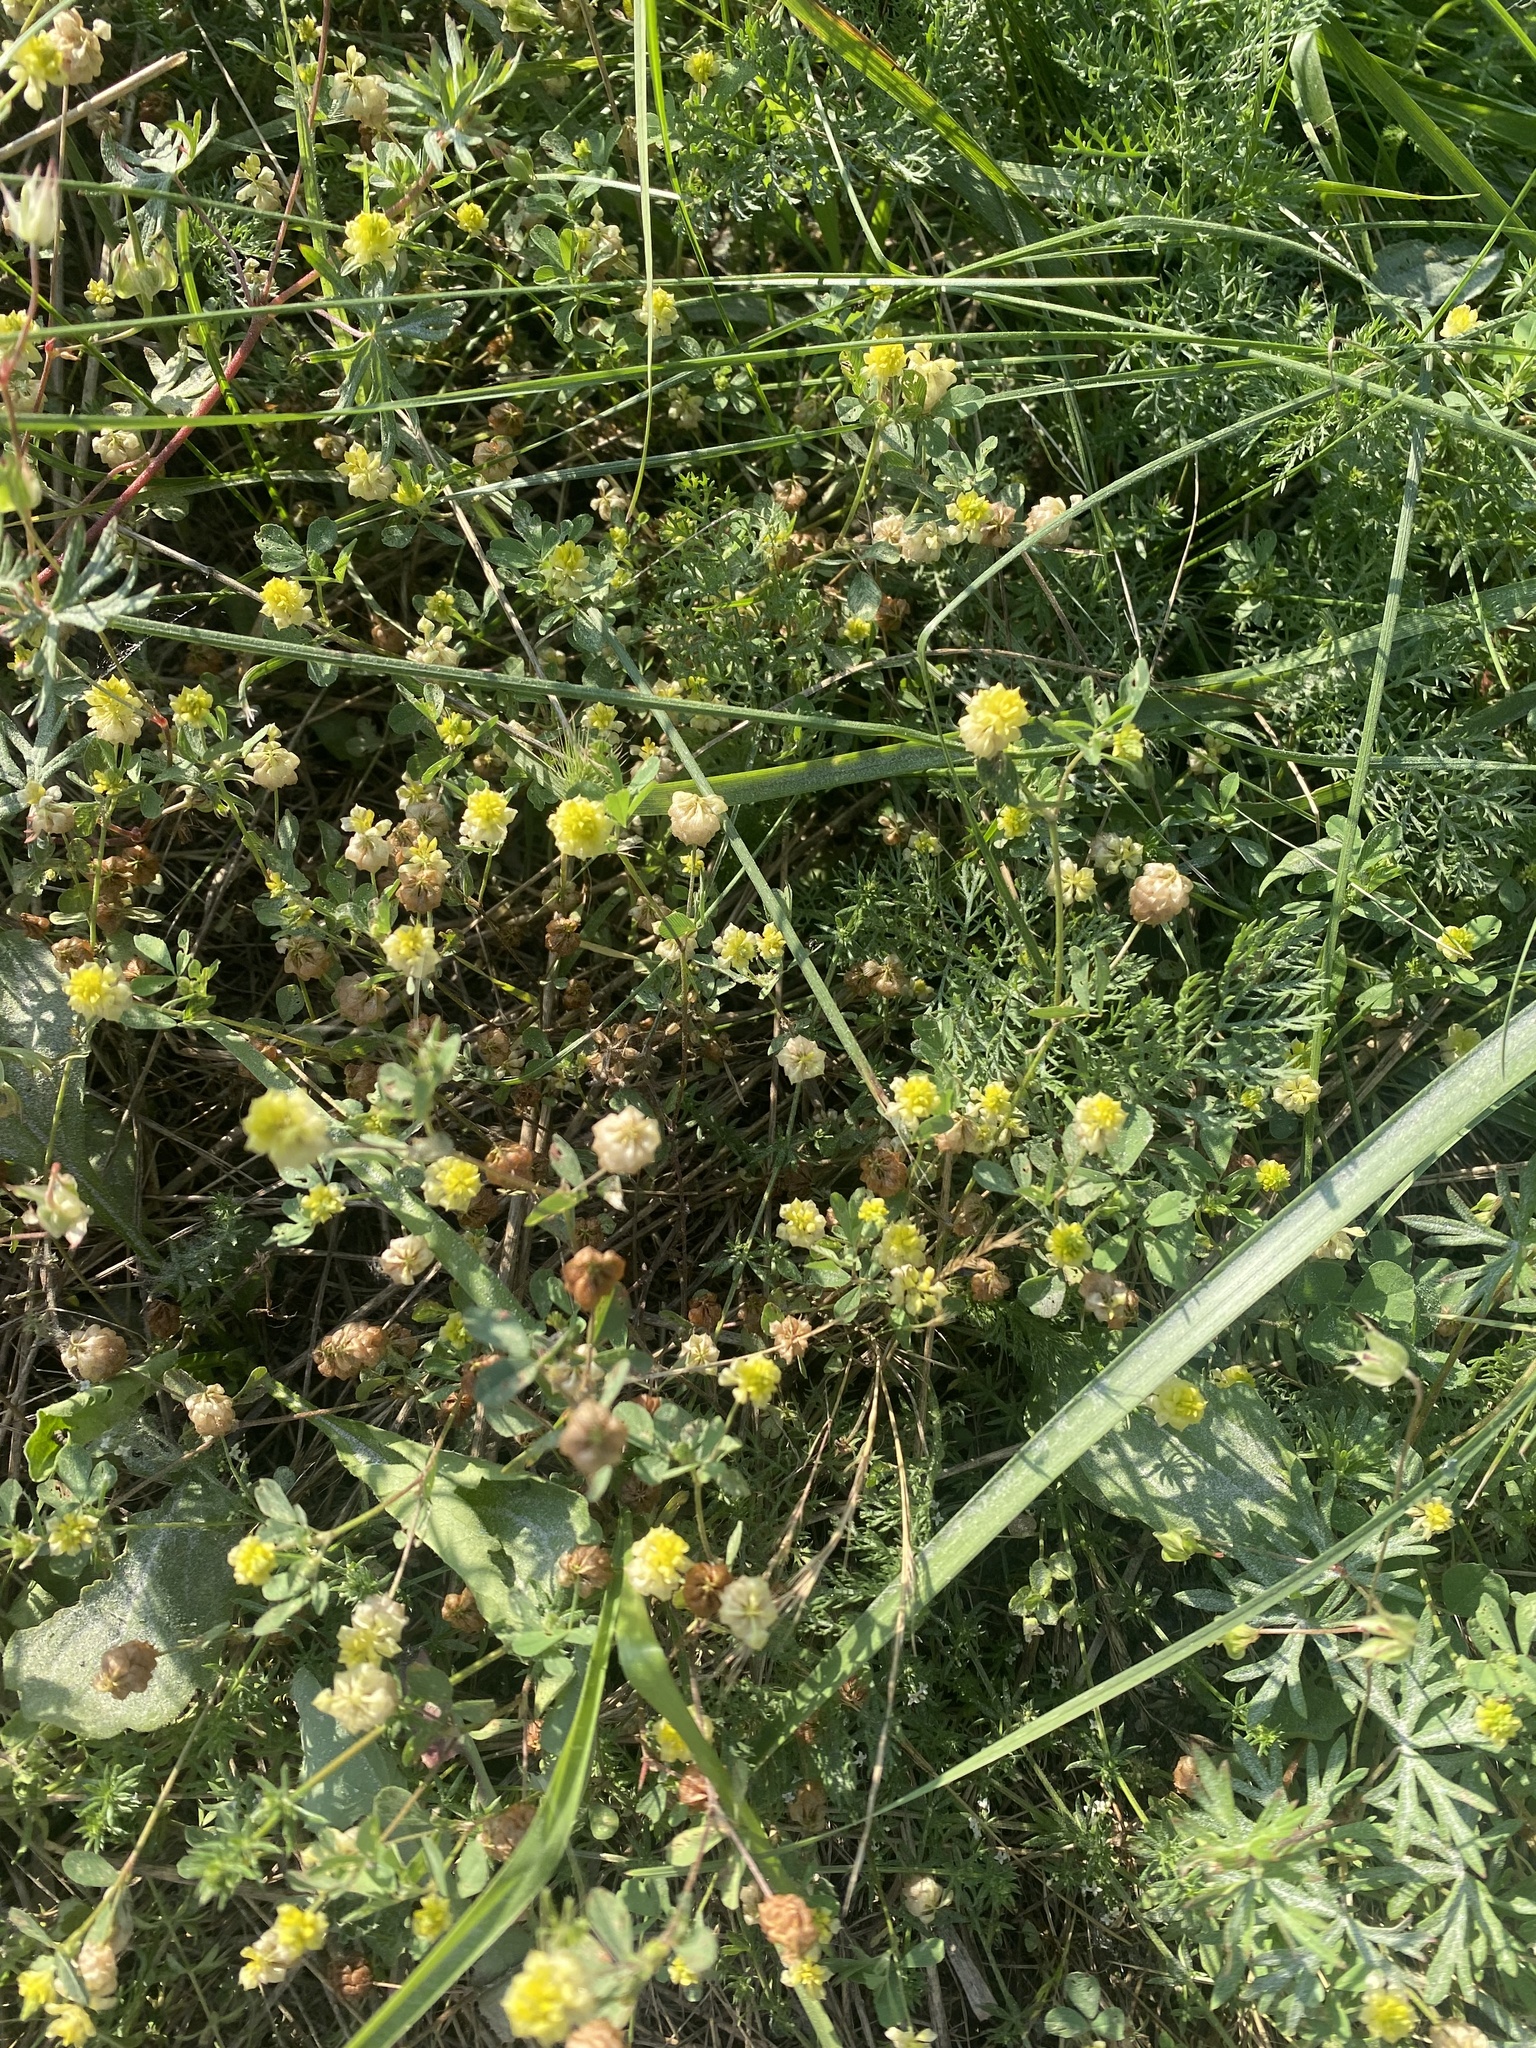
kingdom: Plantae
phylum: Tracheophyta
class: Magnoliopsida
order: Fabales
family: Fabaceae
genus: Trifolium
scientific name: Trifolium campestre
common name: Field clover
